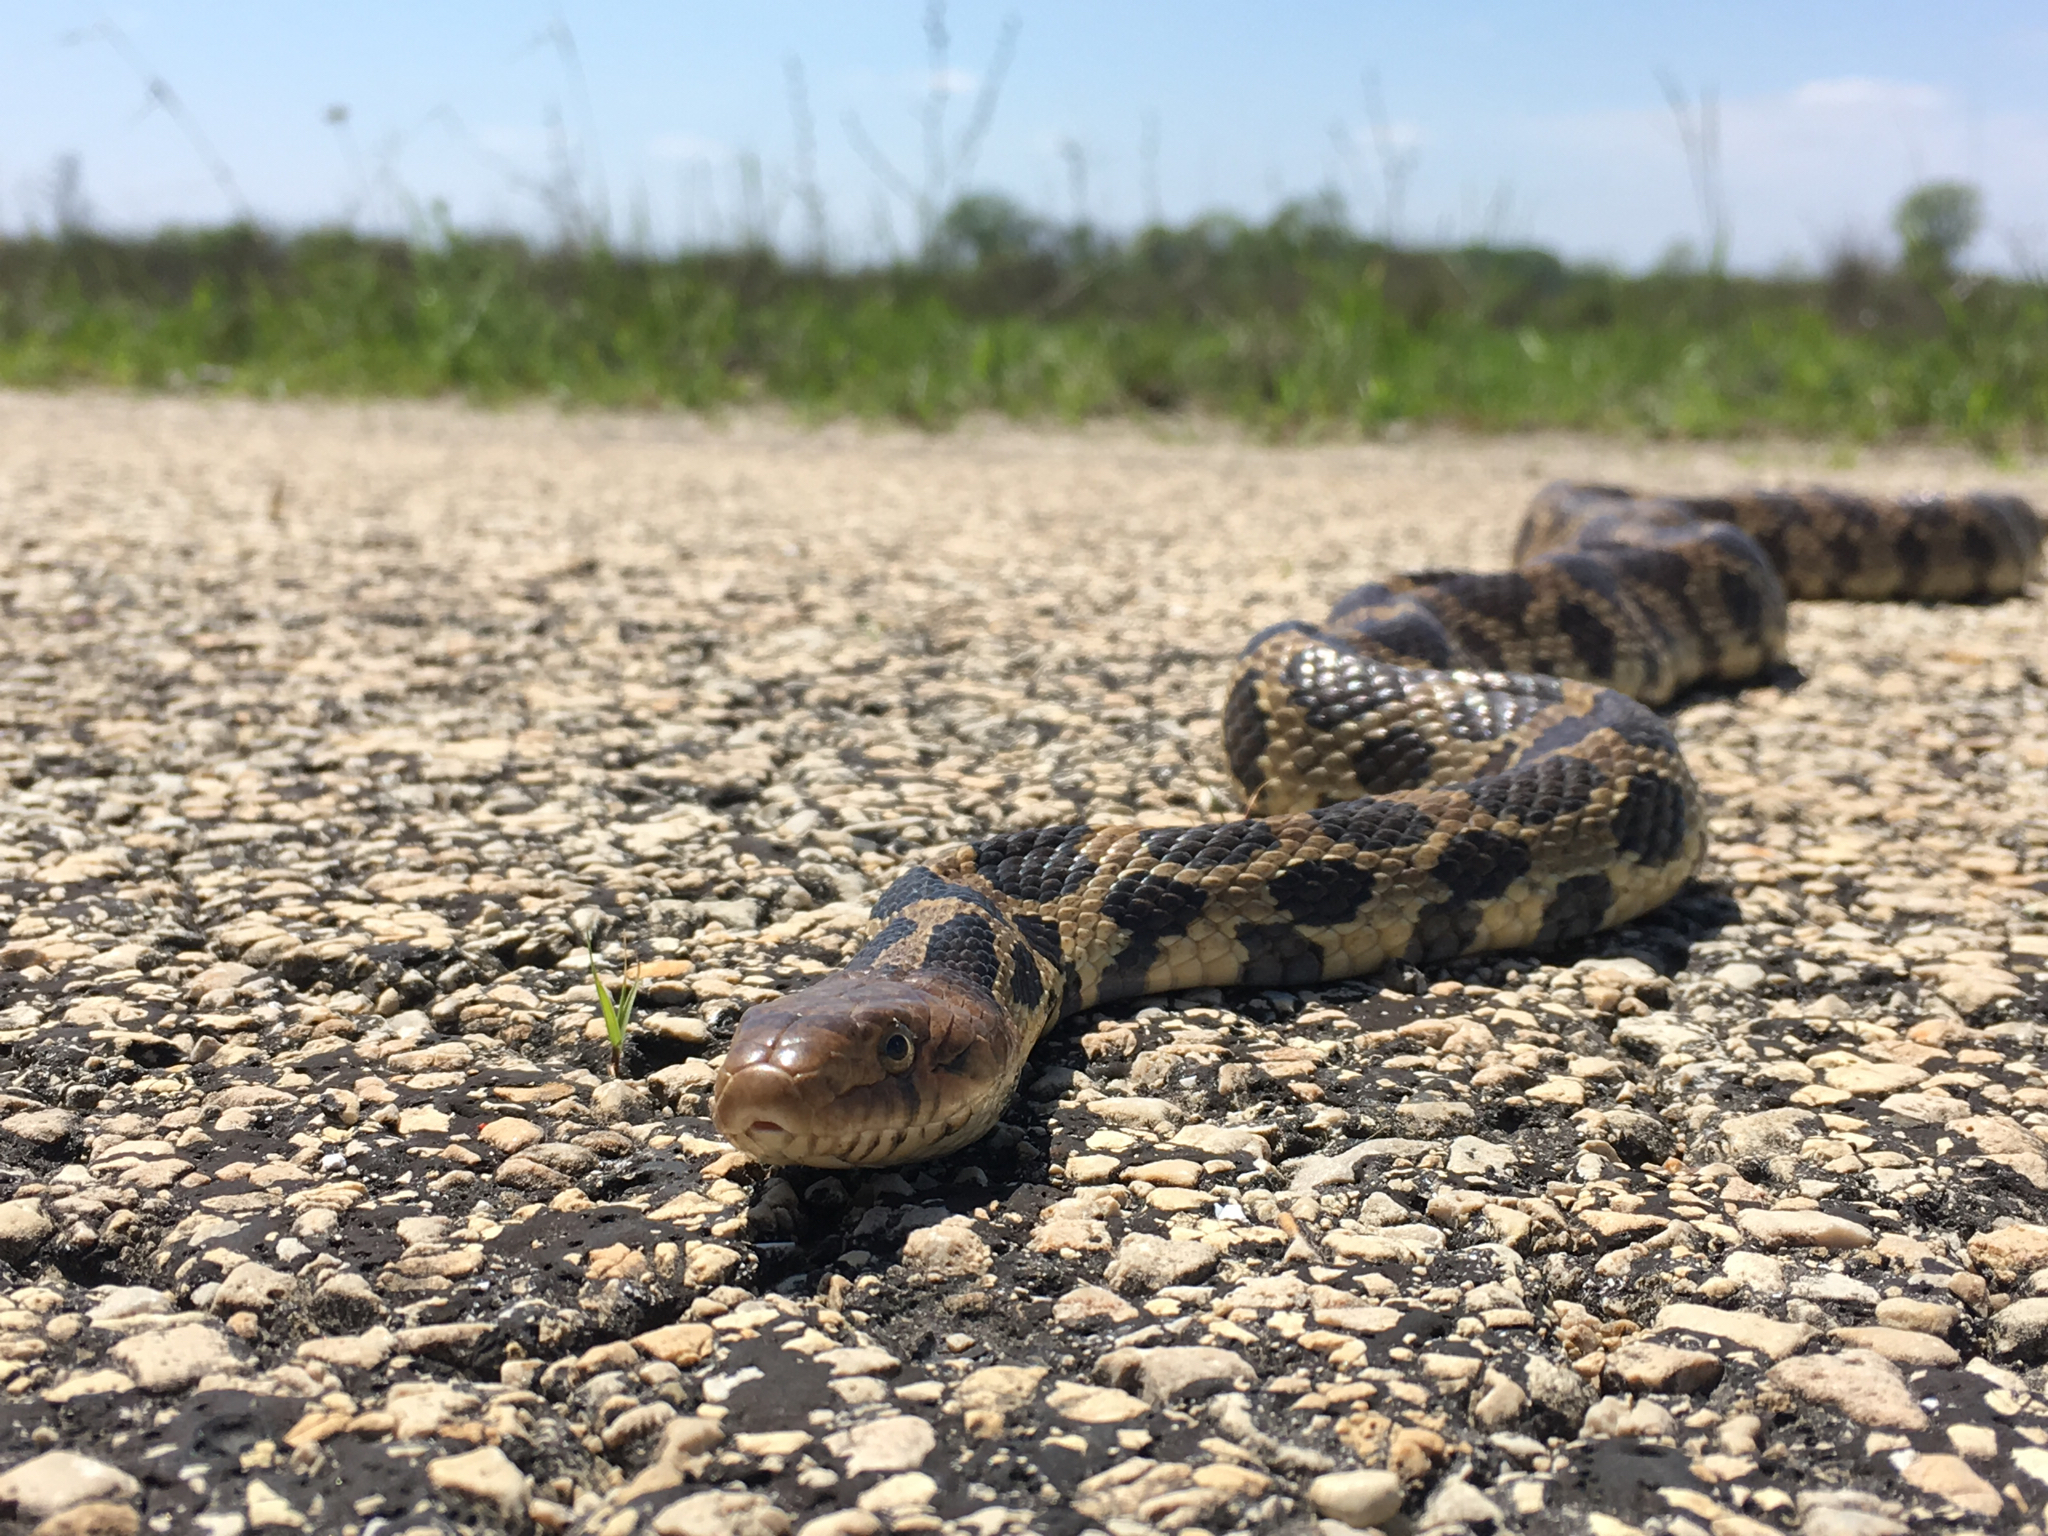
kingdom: Animalia
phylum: Chordata
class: Squamata
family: Colubridae
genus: Pantherophis
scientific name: Pantherophis vulpinus
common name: Eastern fox snake
